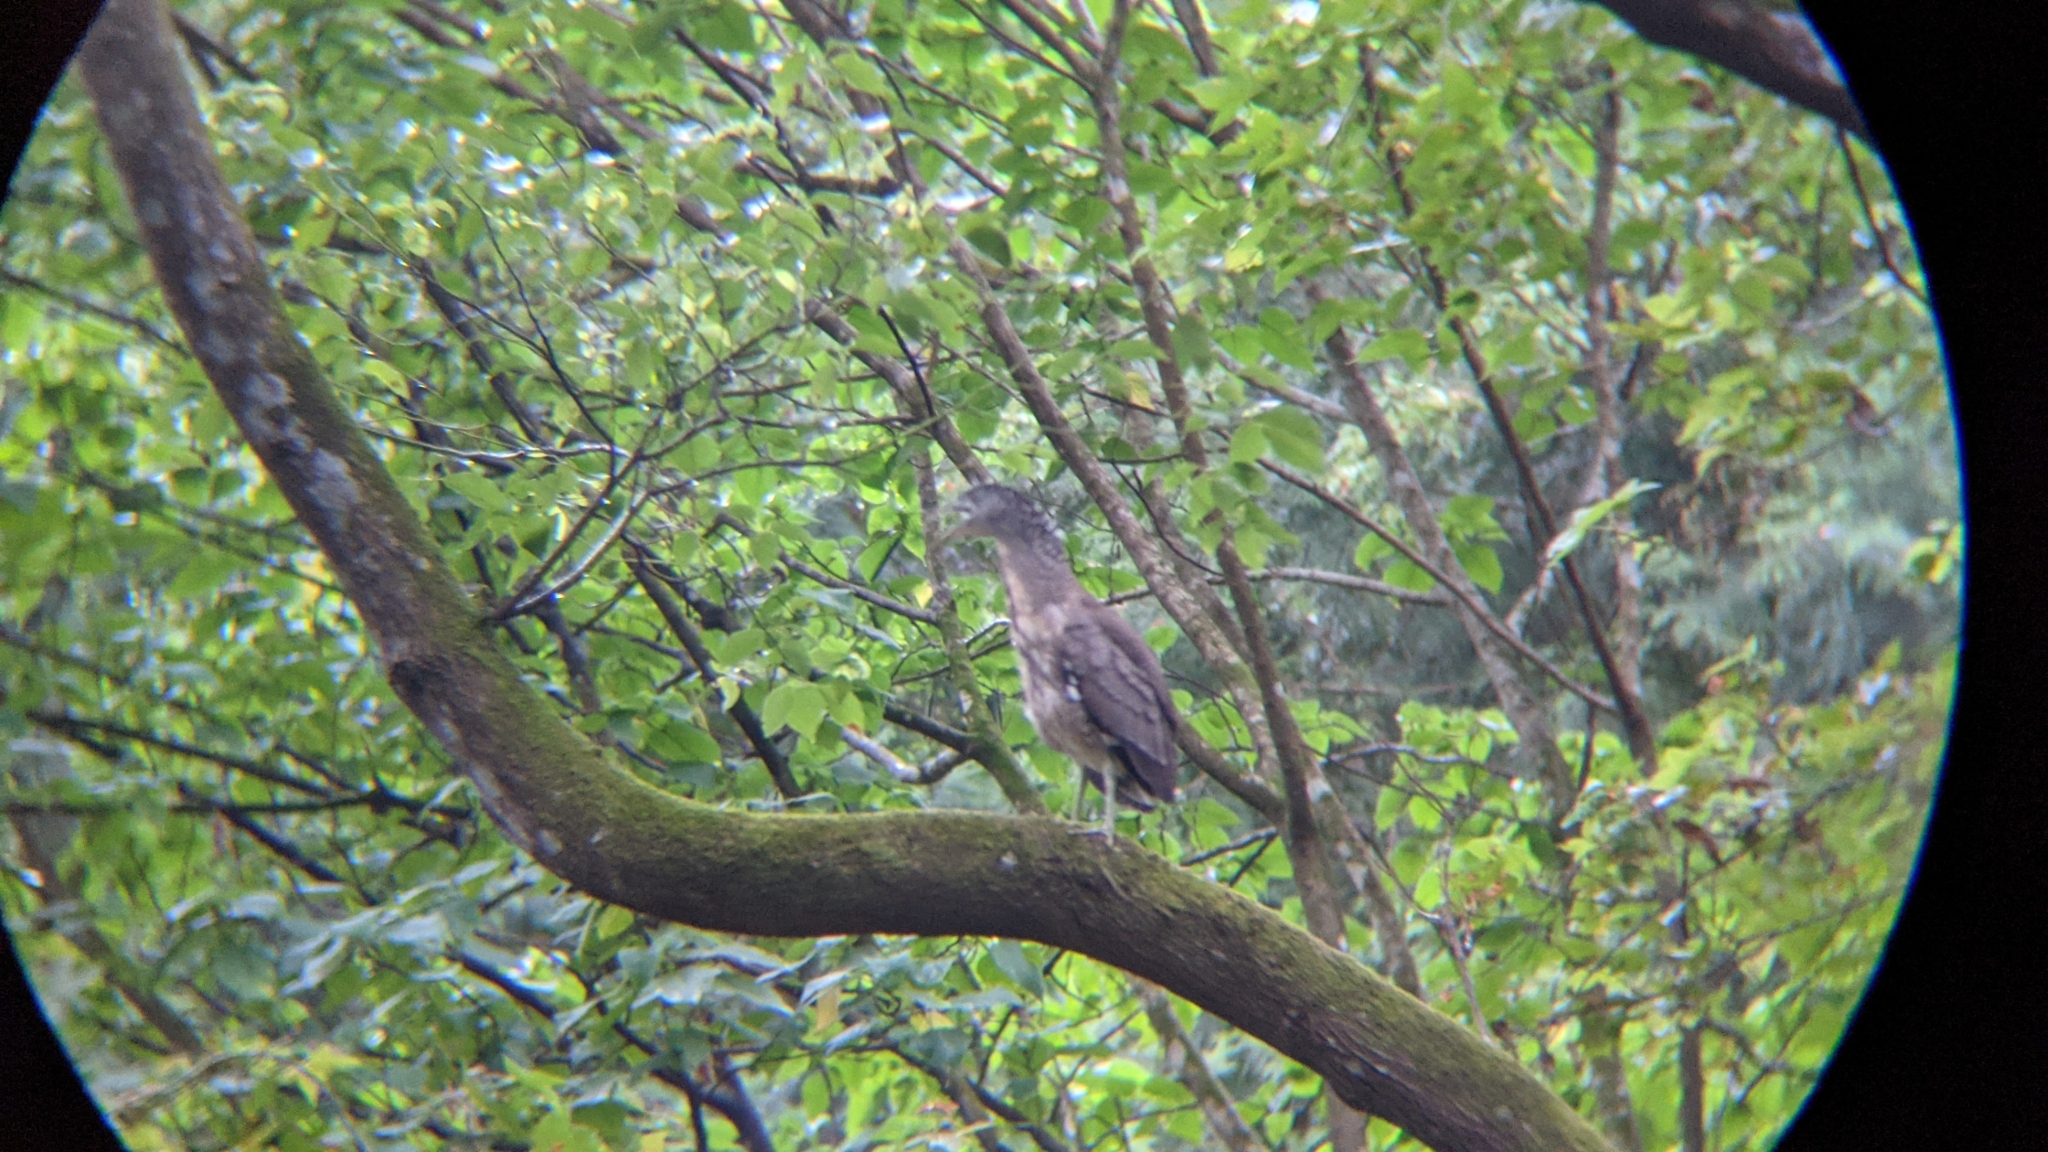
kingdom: Animalia
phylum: Chordata
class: Aves
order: Pelecaniformes
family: Ardeidae
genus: Gorsachius
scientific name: Gorsachius melanolophus
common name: Malayan night heron
